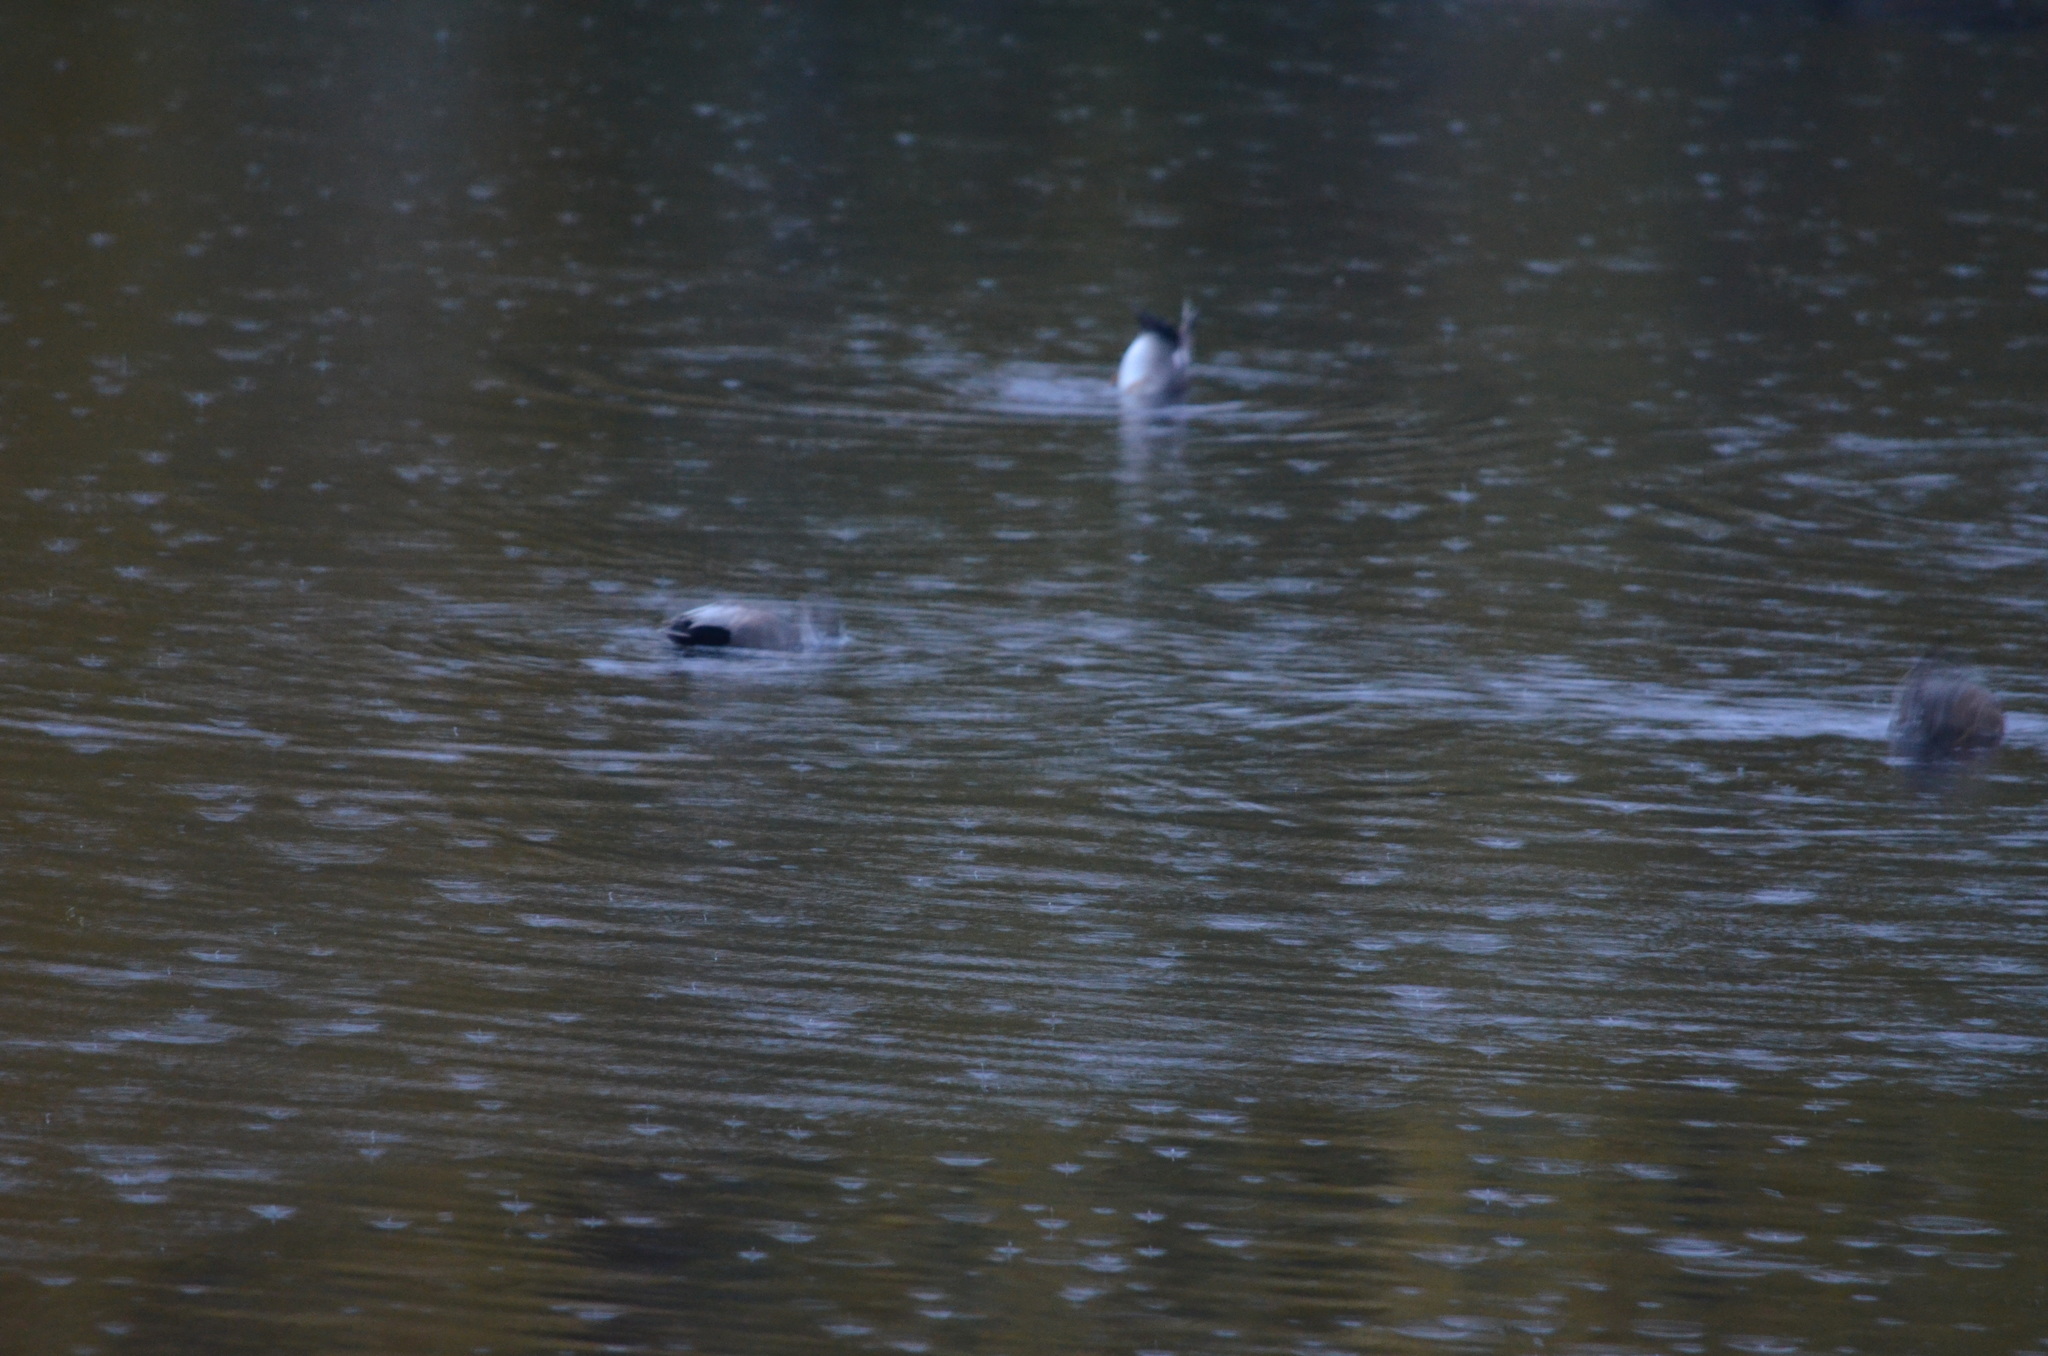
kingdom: Animalia
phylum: Chordata
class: Aves
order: Anseriformes
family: Anatidae
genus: Mareca
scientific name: Mareca strepera
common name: Gadwall
